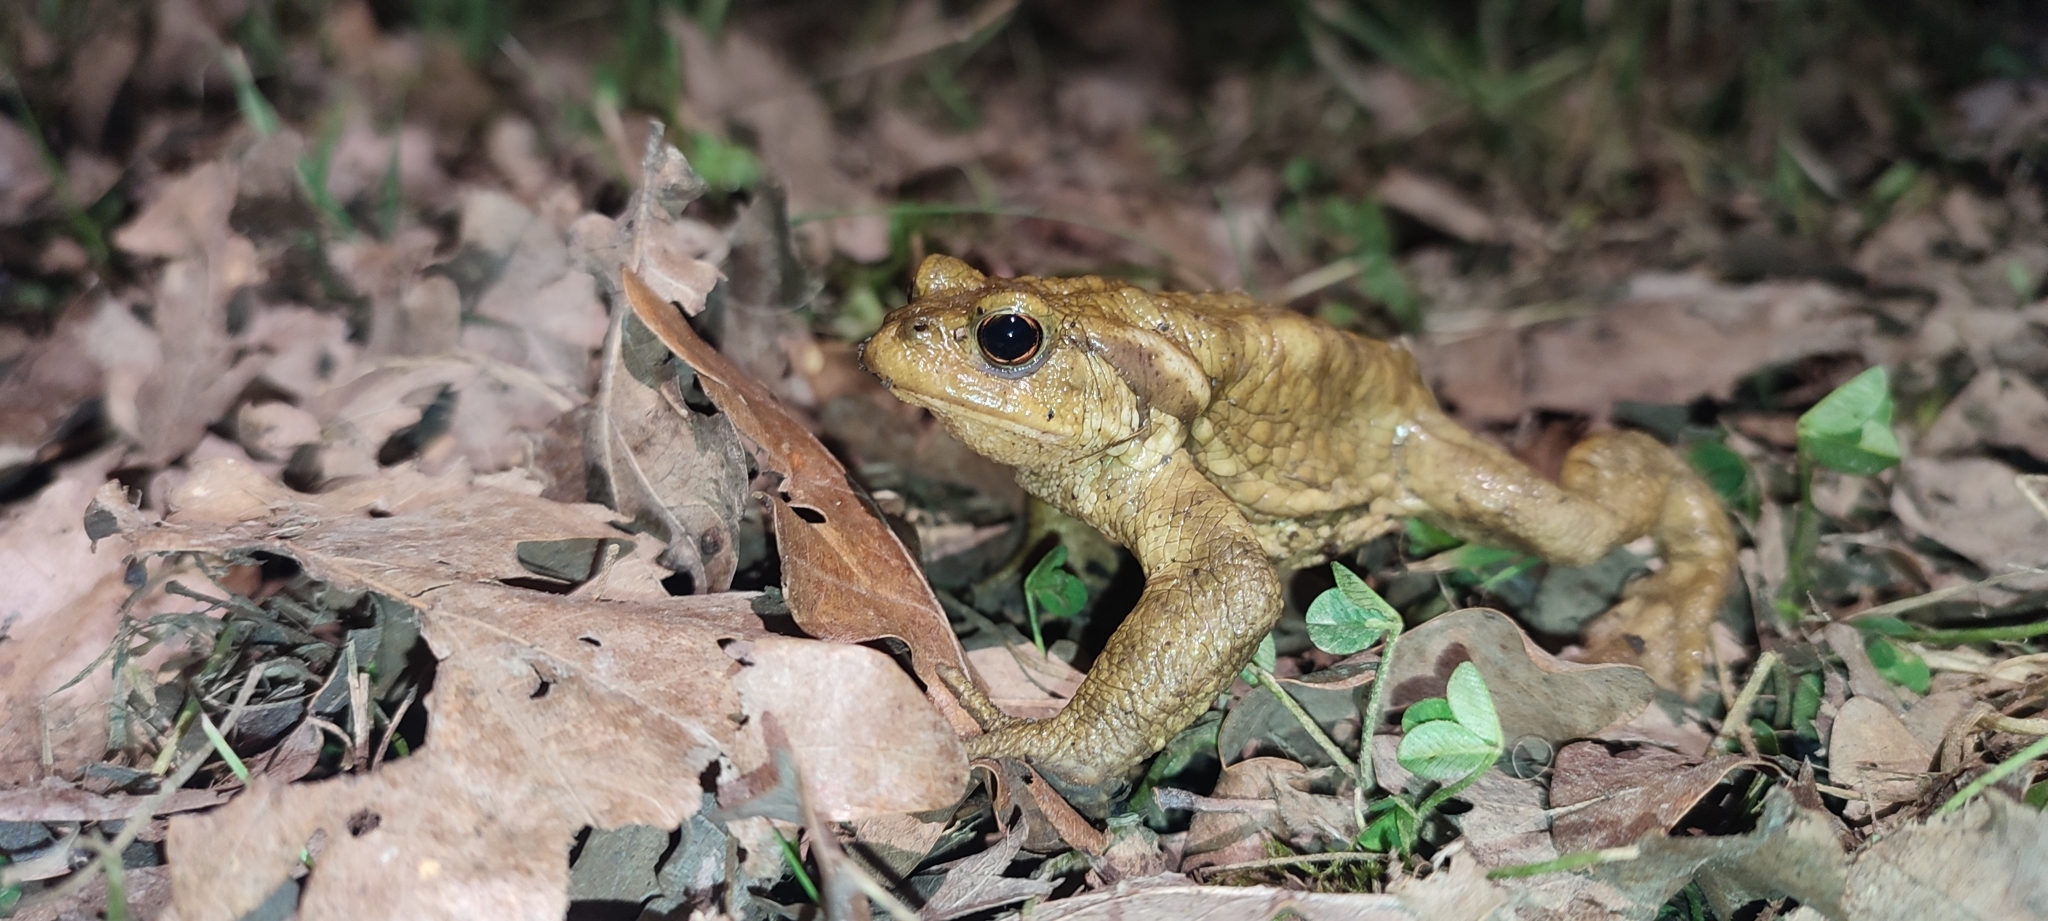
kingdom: Animalia
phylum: Chordata
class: Amphibia
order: Anura
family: Bufonidae
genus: Bufo
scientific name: Bufo spinosus
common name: Western common toad
